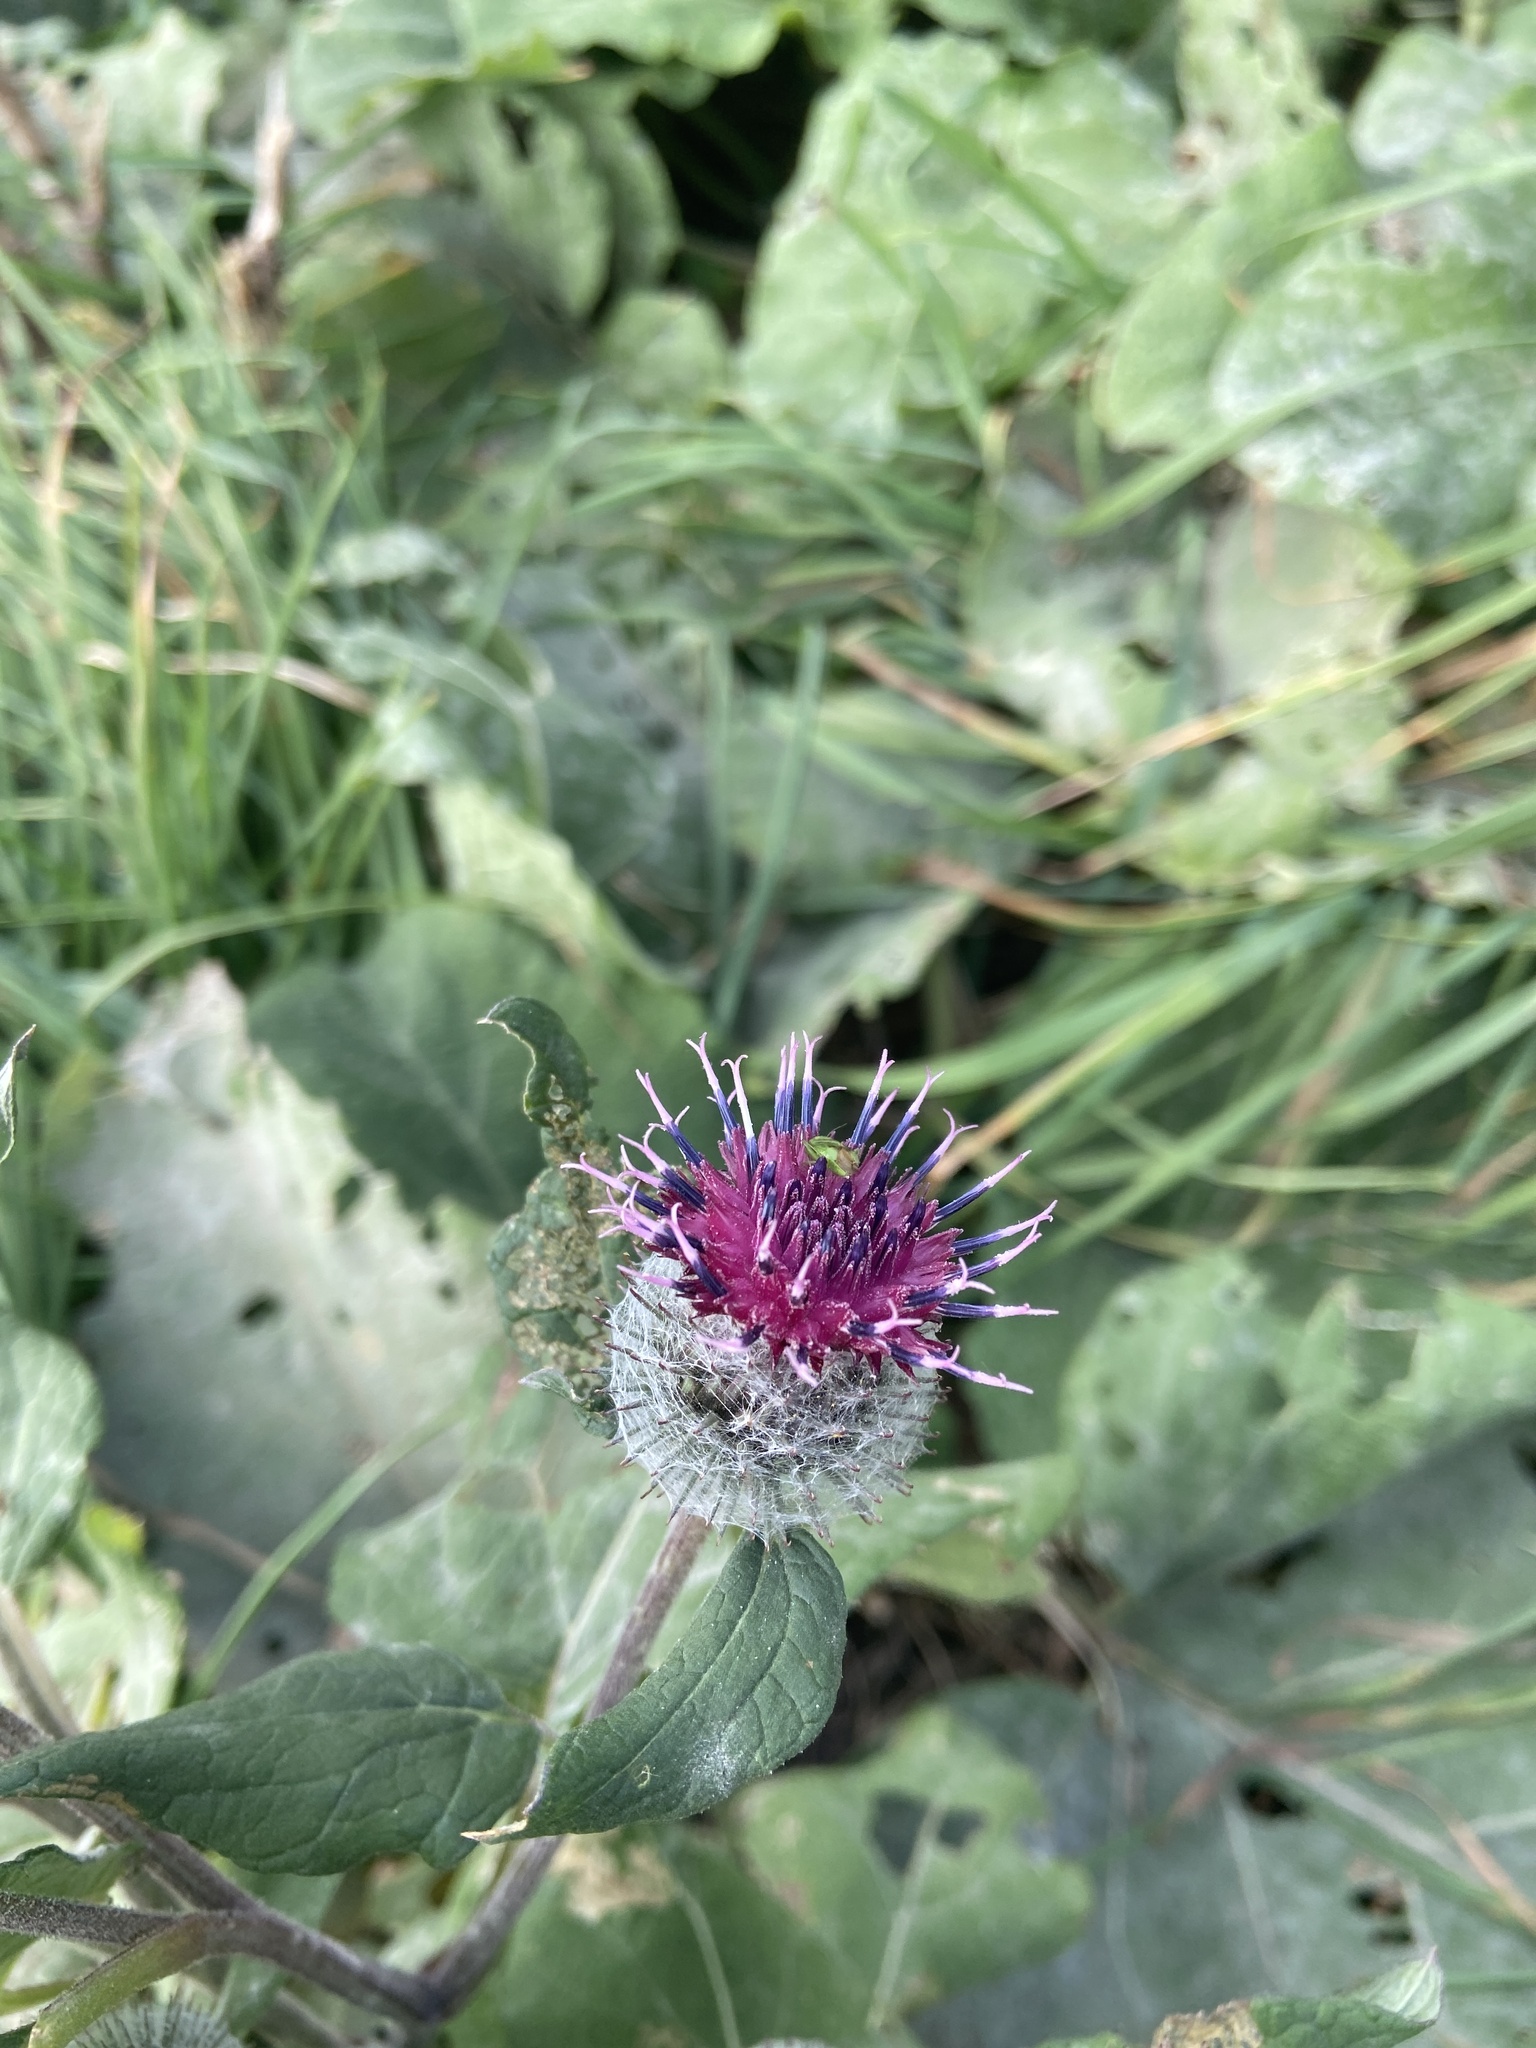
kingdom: Plantae
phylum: Tracheophyta
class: Magnoliopsida
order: Asterales
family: Asteraceae
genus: Arctium
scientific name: Arctium tomentosum
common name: Woolly burdock
